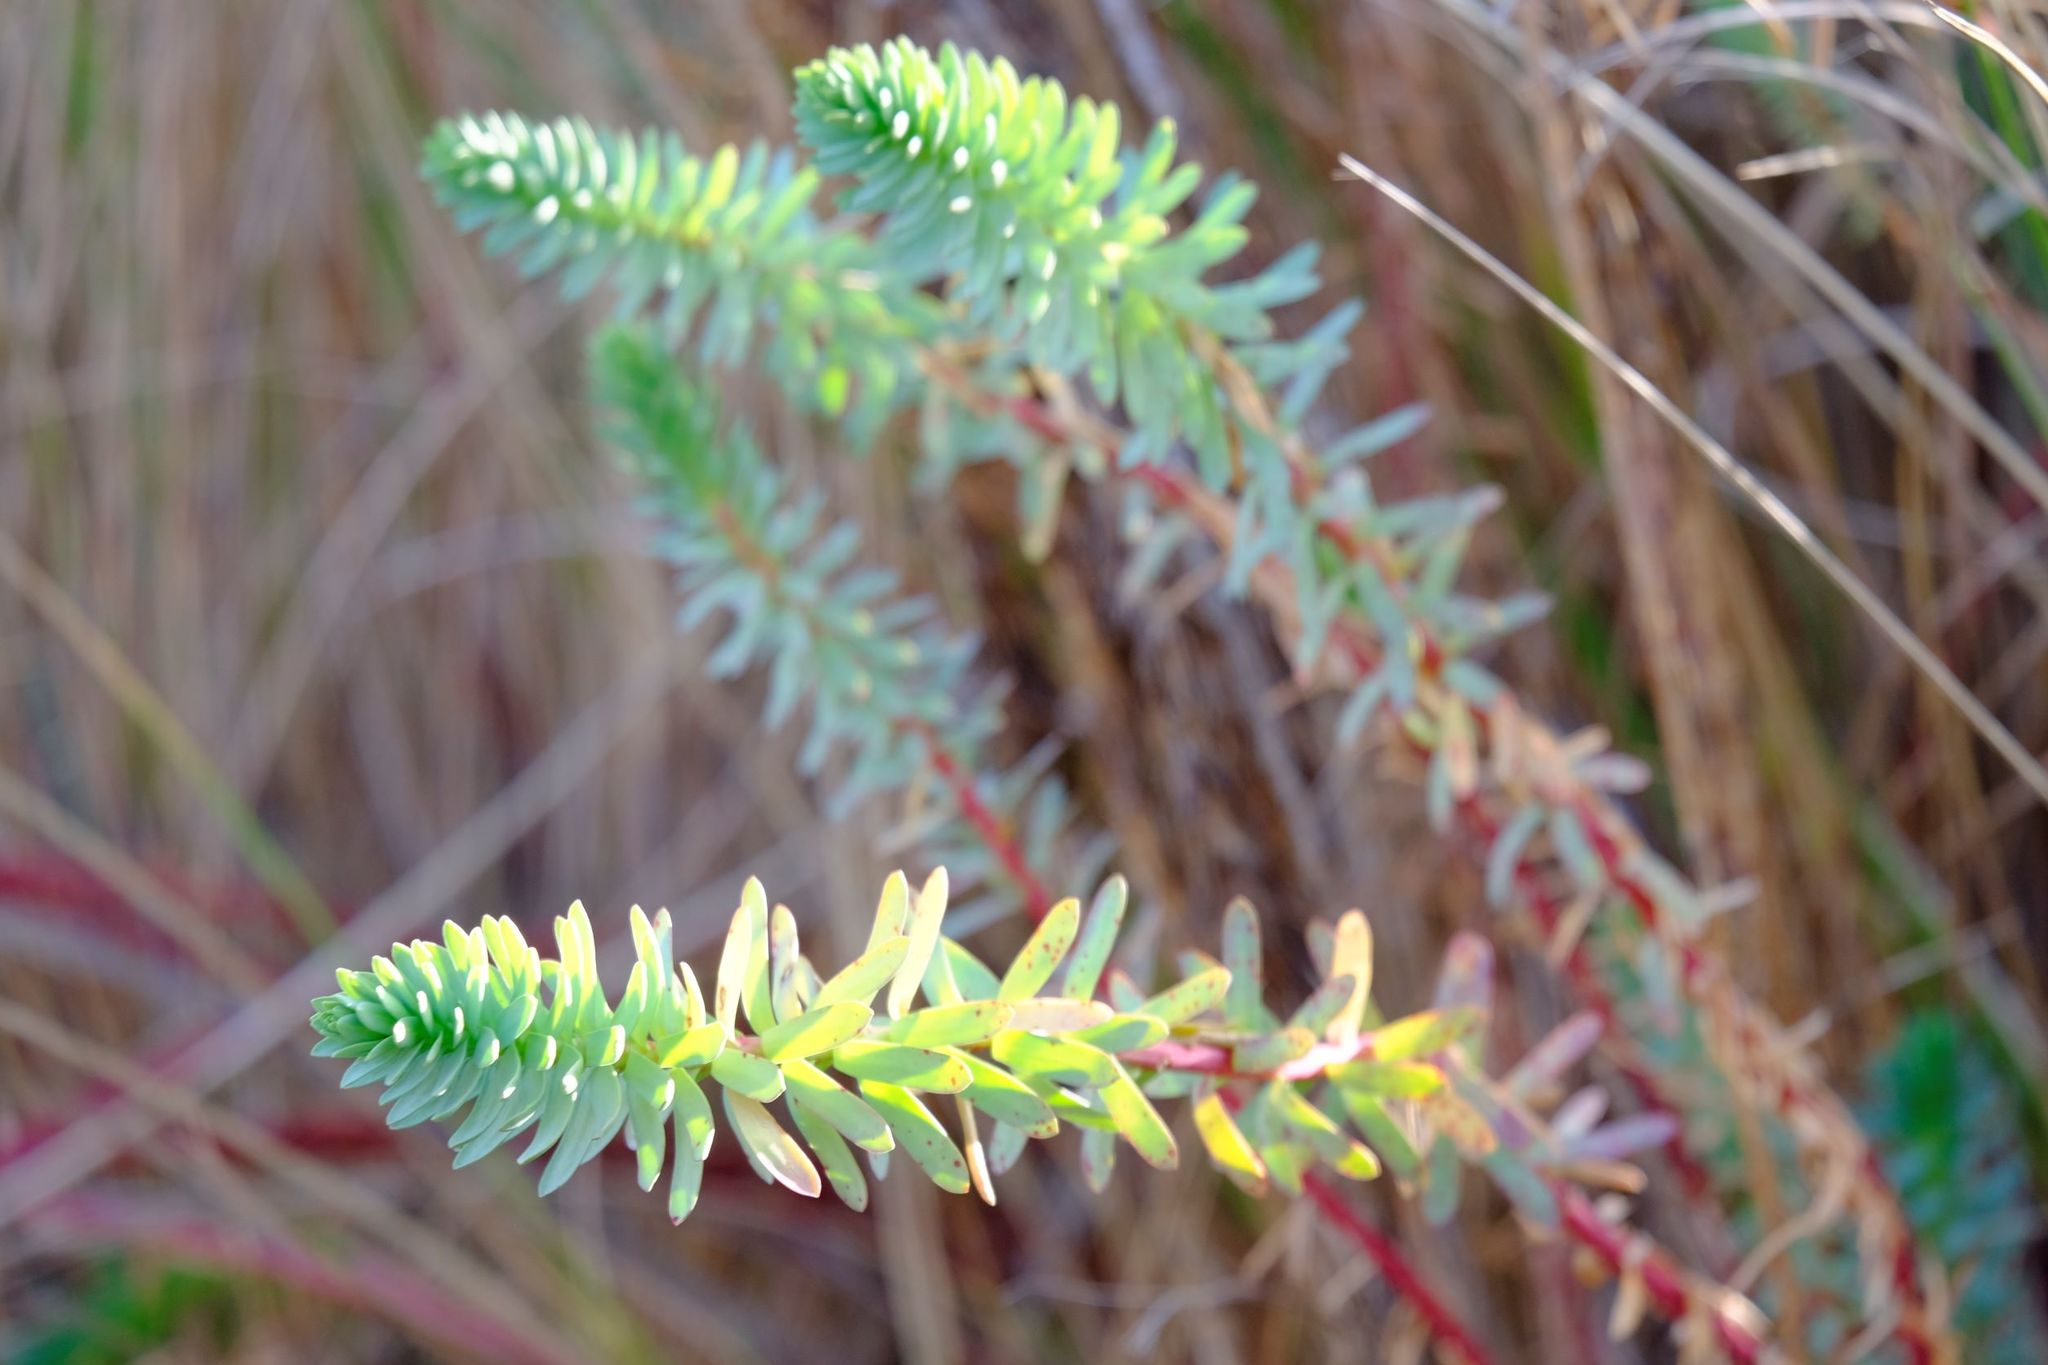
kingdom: Plantae
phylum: Tracheophyta
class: Magnoliopsida
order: Malpighiales
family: Euphorbiaceae
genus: Euphorbia
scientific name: Euphorbia paralias
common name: Sea spurge
